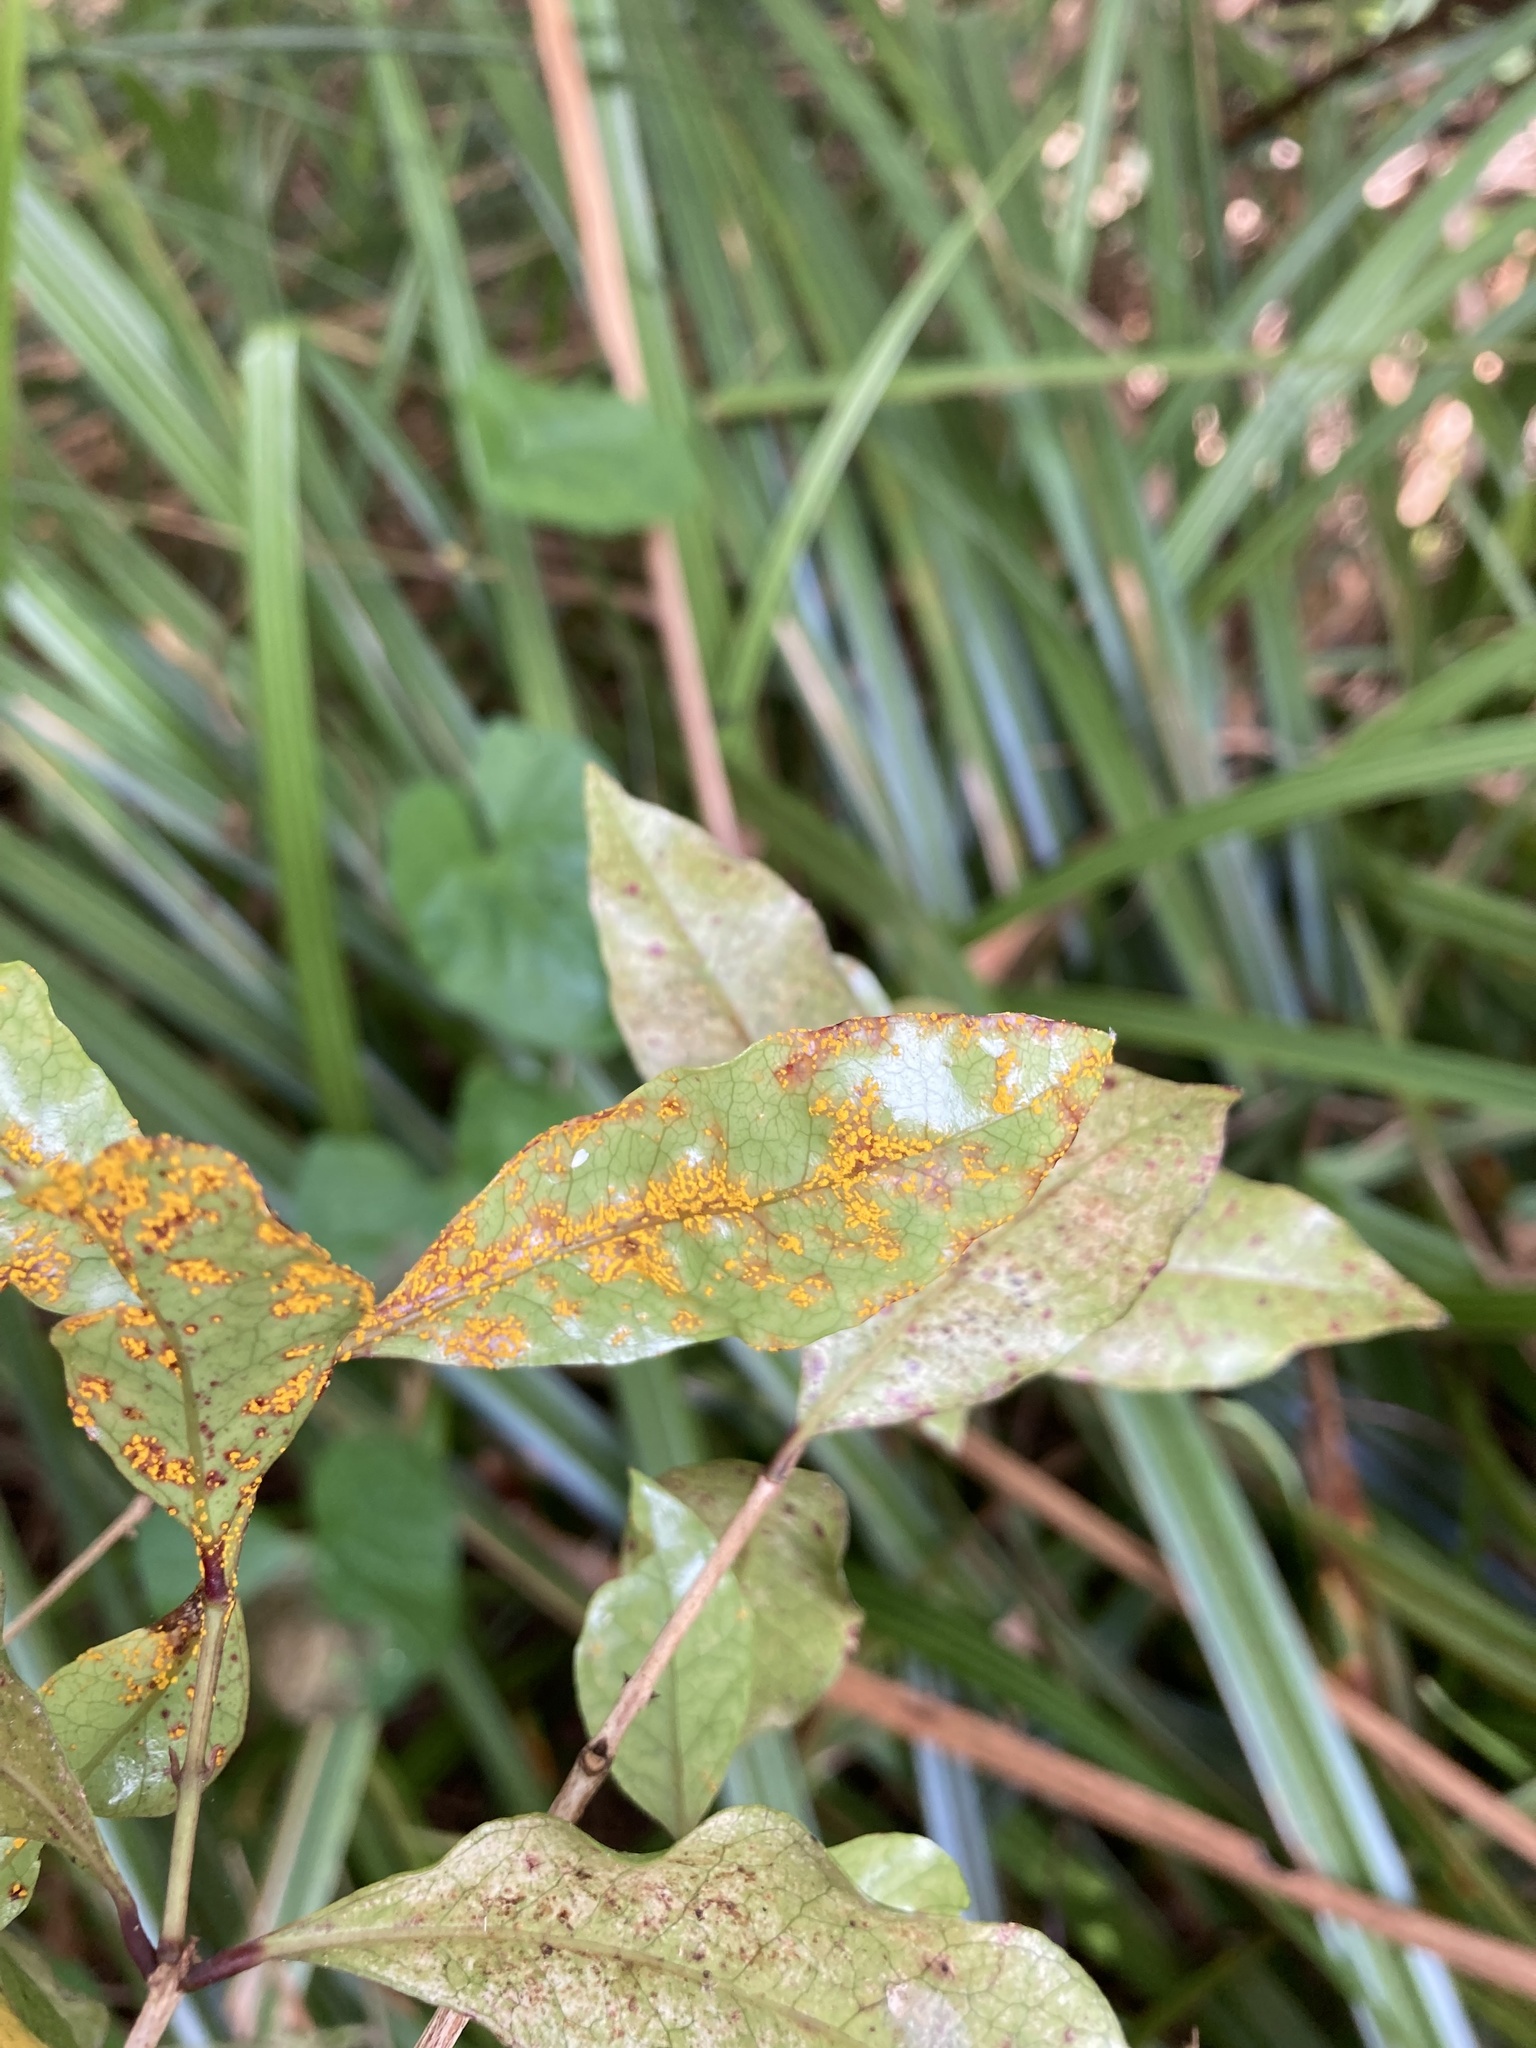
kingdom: Fungi
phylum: Basidiomycota
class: Pucciniomycetes
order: Pucciniales
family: Sphaerophragmiaceae
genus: Austropuccinia
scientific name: Austropuccinia psidii
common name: Myrtle rust
